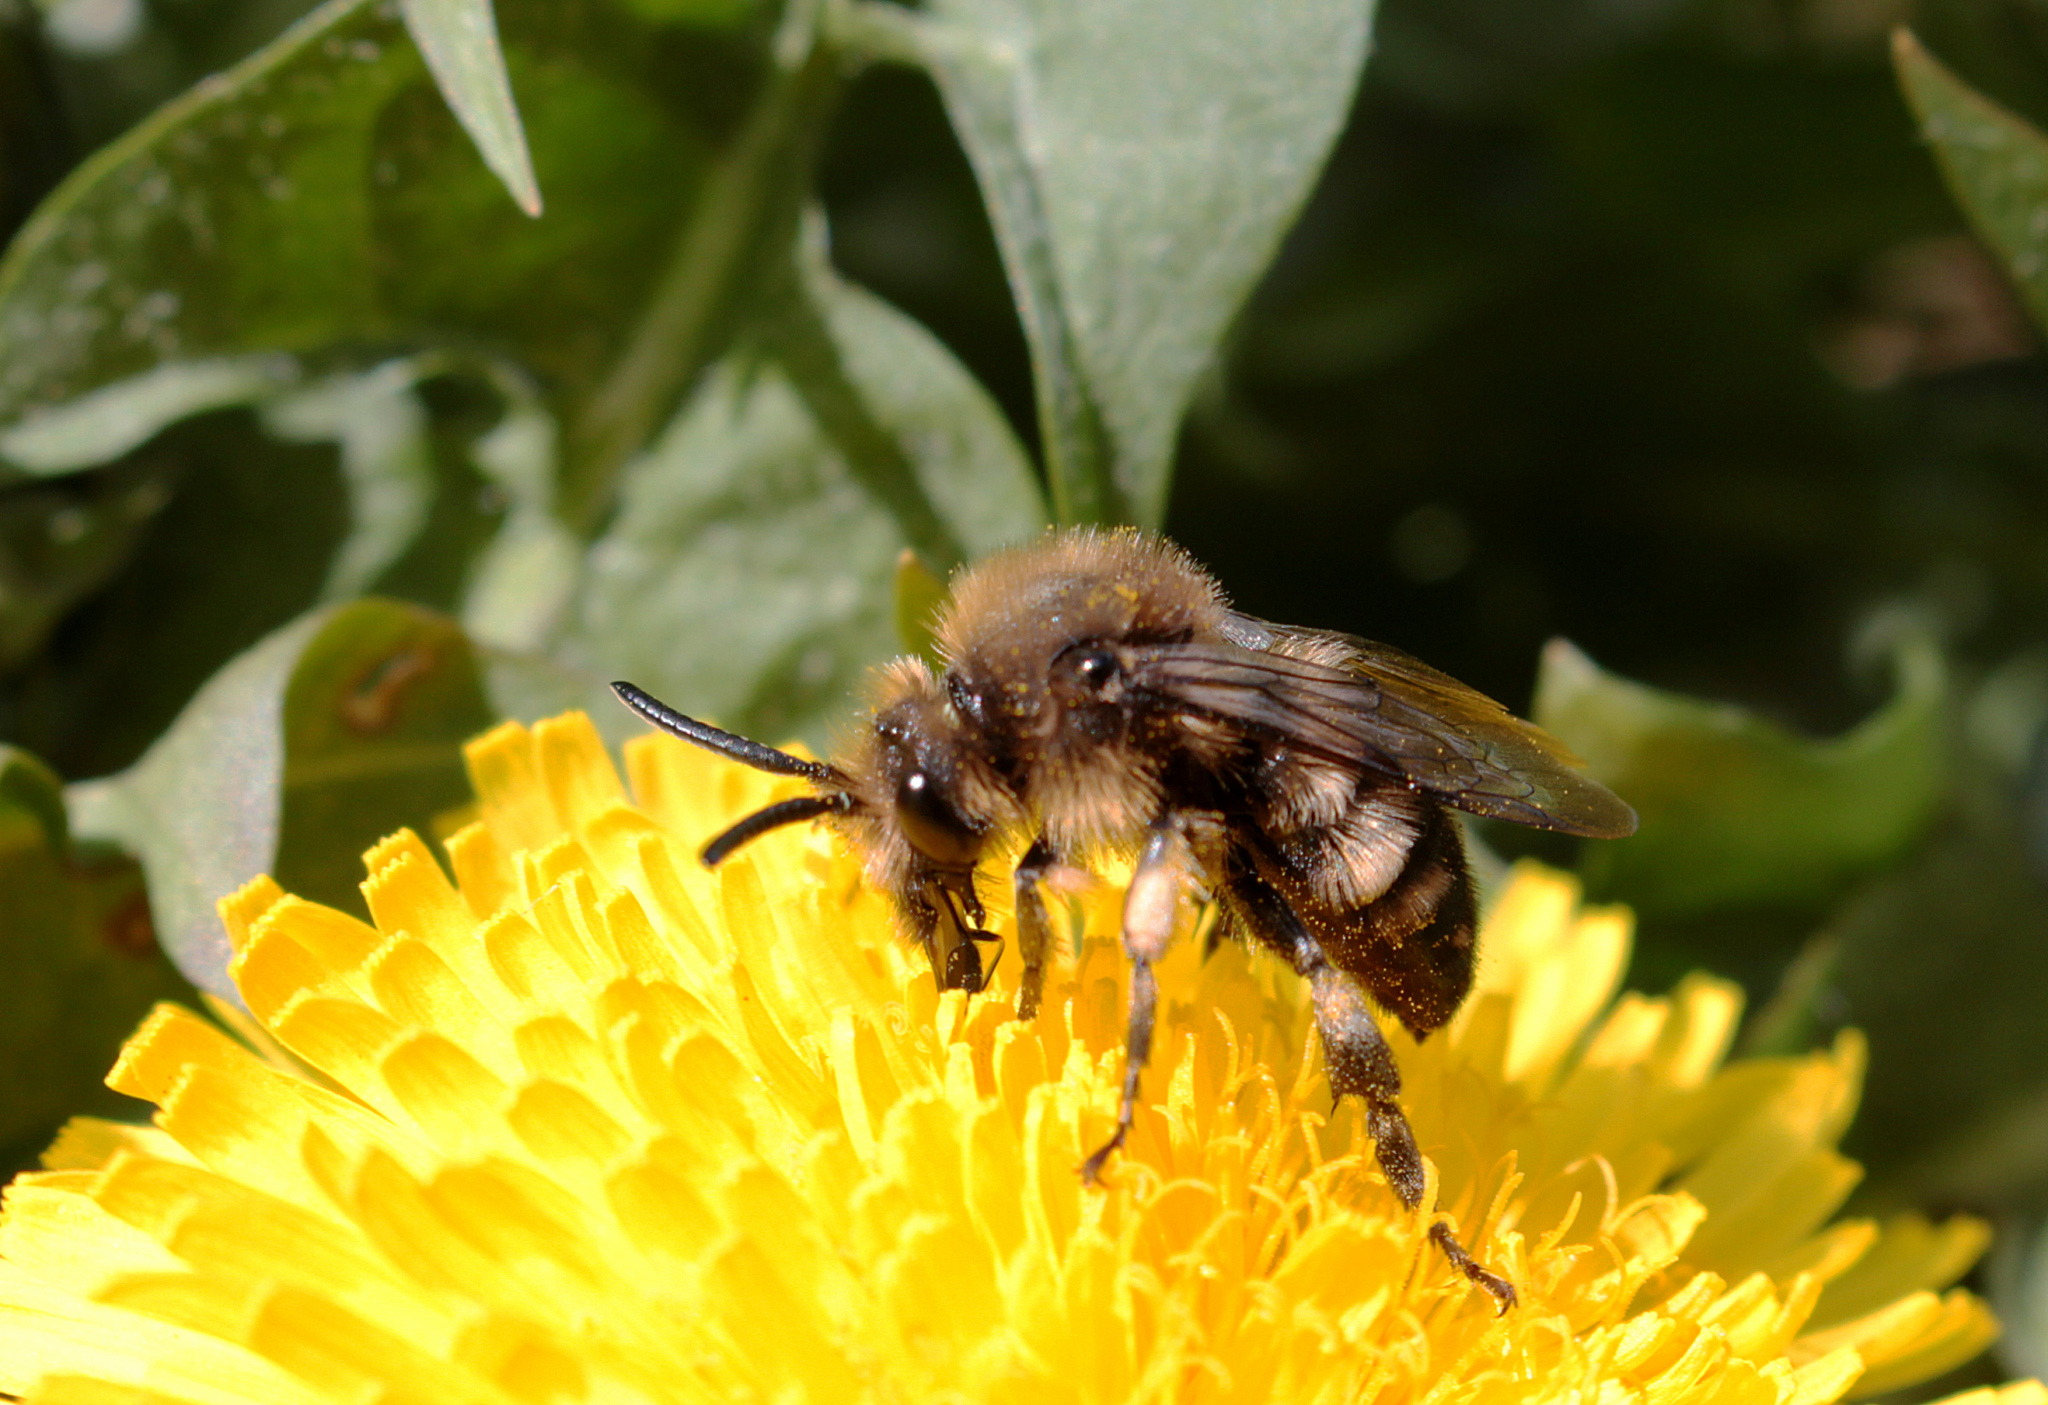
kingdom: Animalia
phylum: Arthropoda
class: Insecta
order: Hymenoptera
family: Apidae
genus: Melecta
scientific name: Melecta albifrons
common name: Common mourning bee
